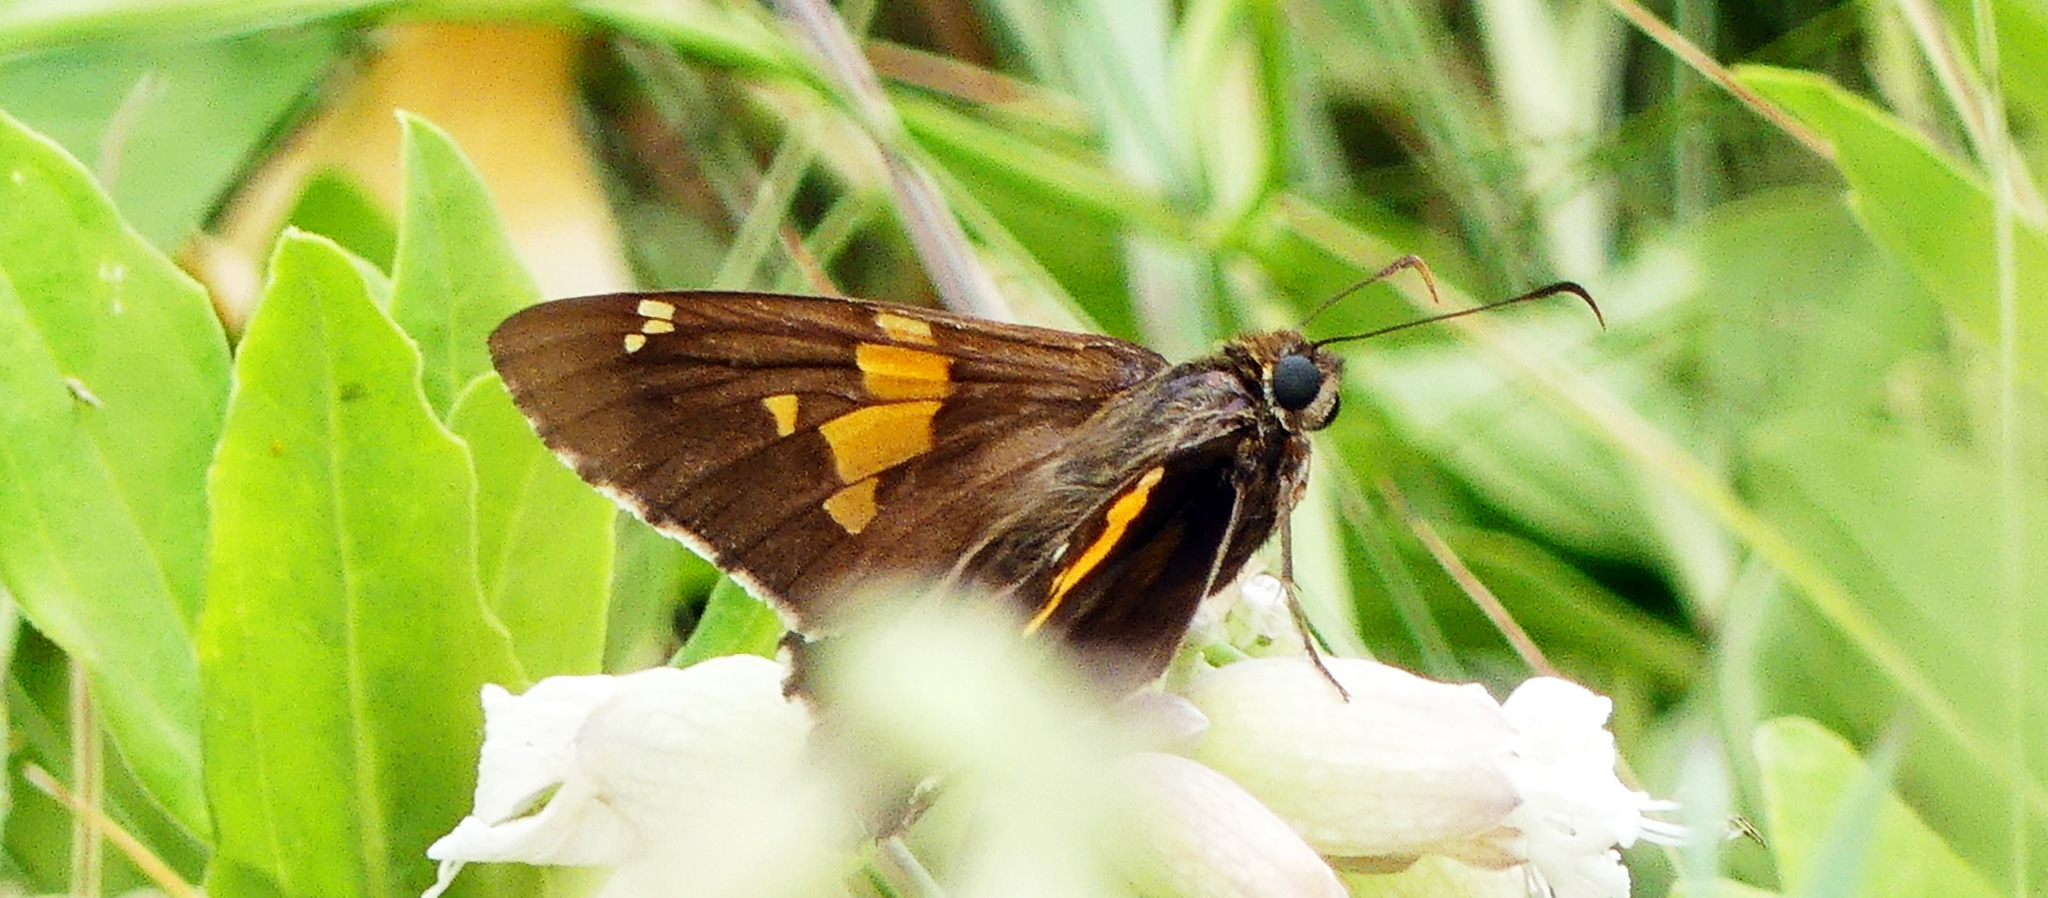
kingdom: Animalia
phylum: Arthropoda
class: Insecta
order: Lepidoptera
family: Hesperiidae
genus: Epargyreus
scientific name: Epargyreus clarus
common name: Silver-spotted skipper
